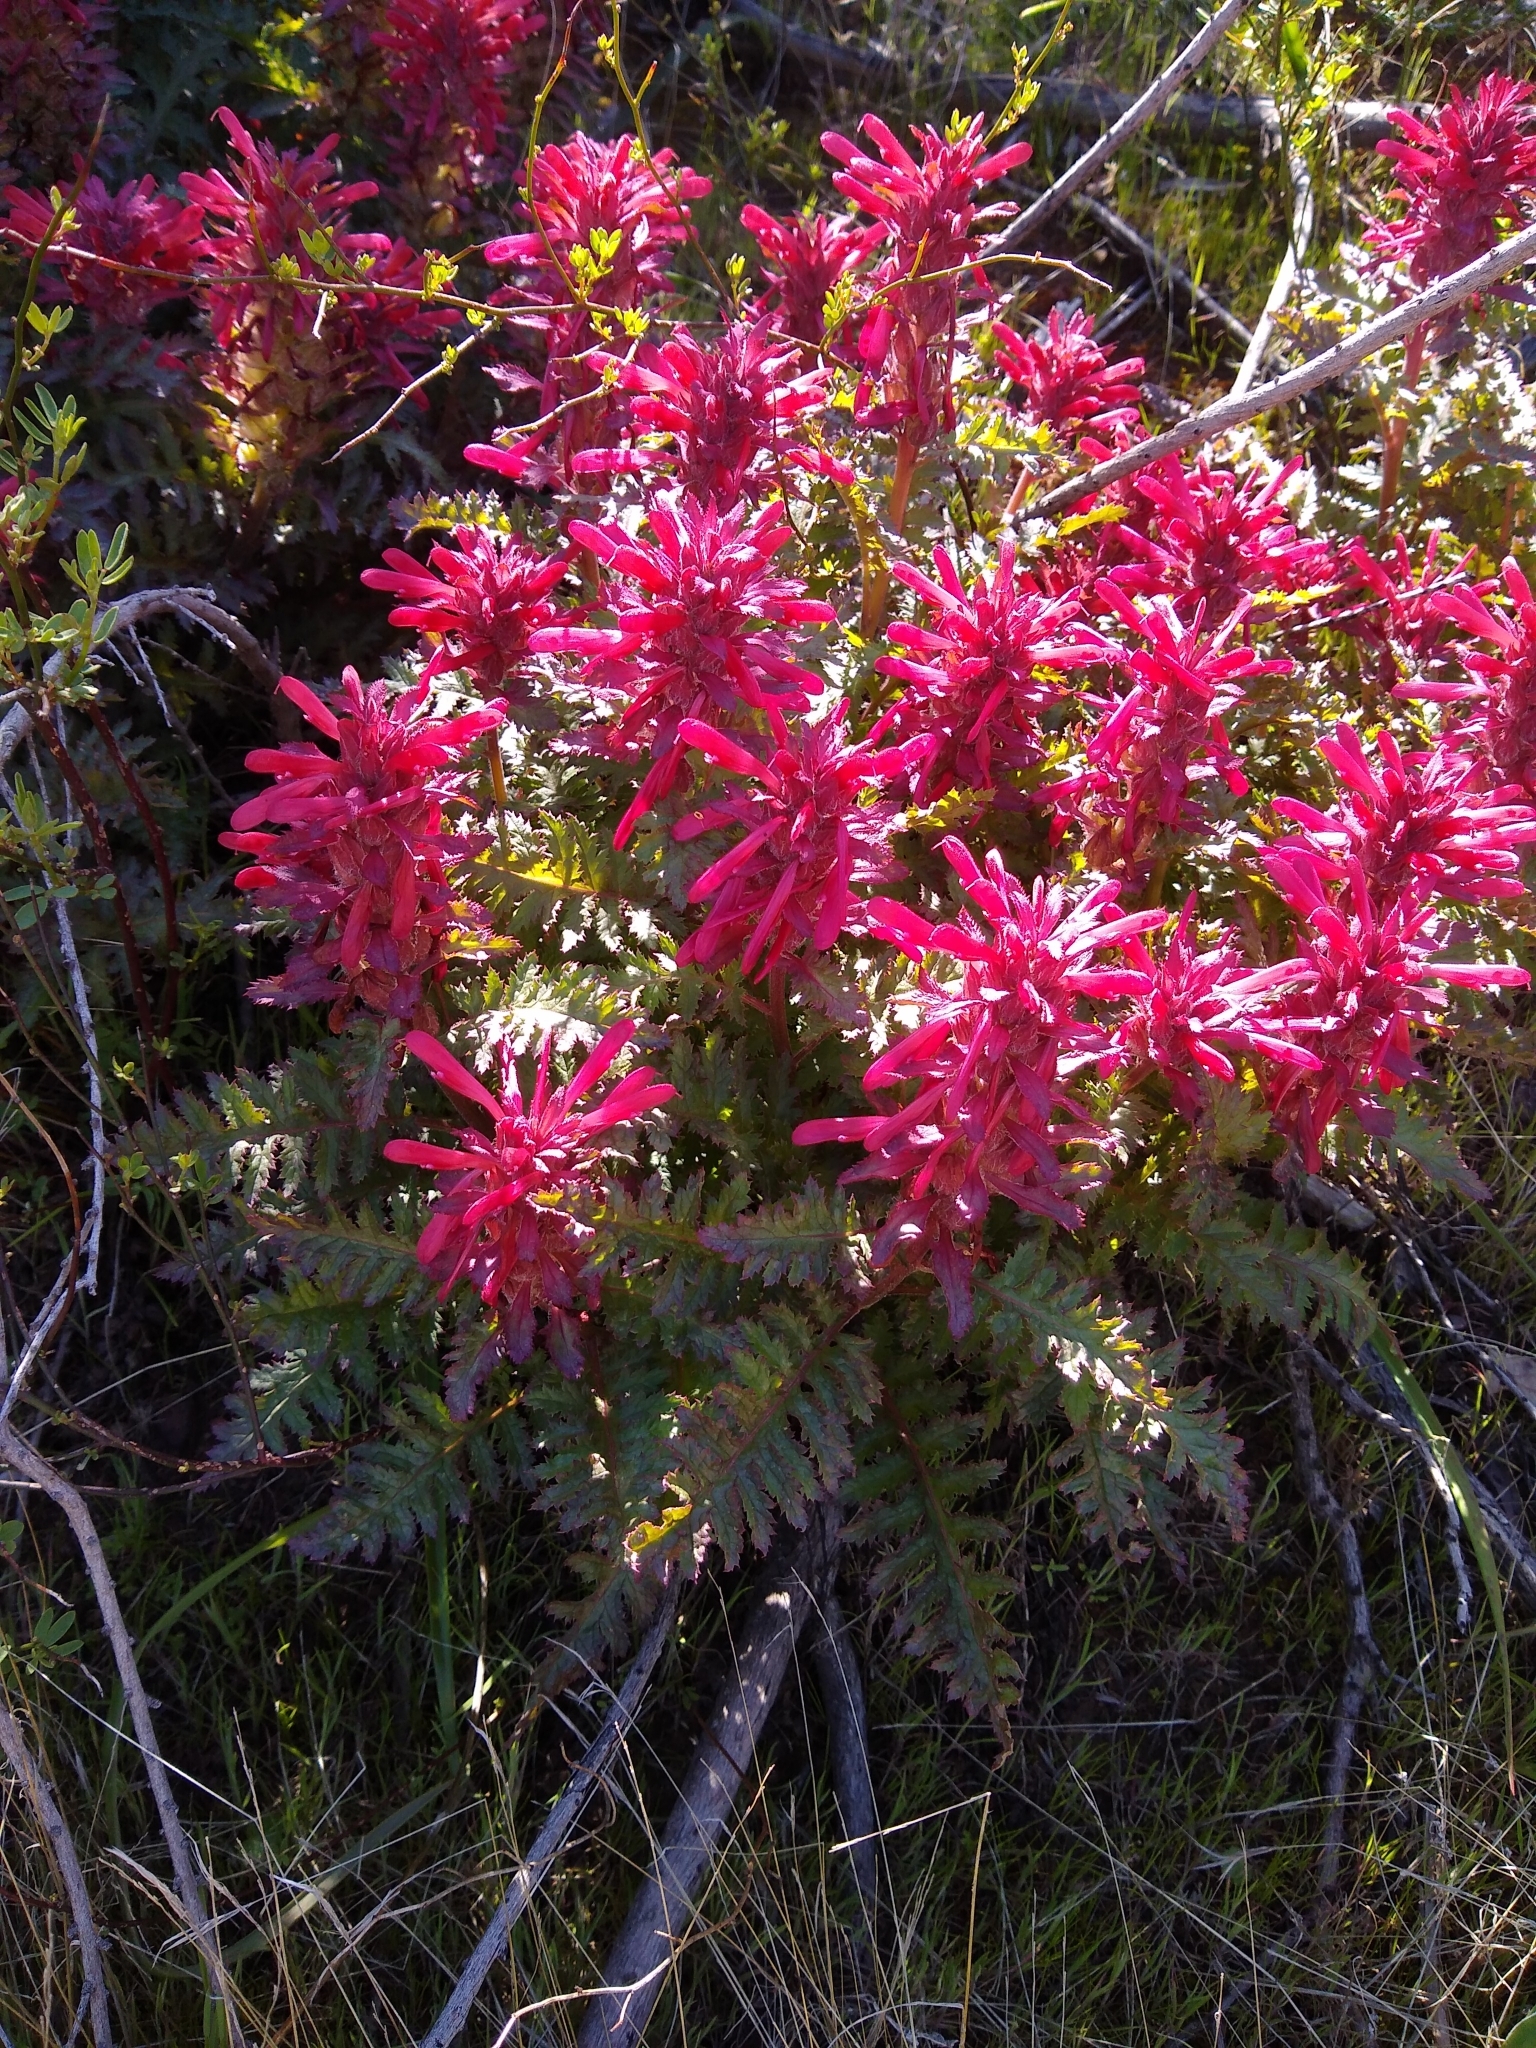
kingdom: Plantae
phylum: Tracheophyta
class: Magnoliopsida
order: Lamiales
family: Orobanchaceae
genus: Pedicularis
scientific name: Pedicularis densiflora
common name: Indian warrior
